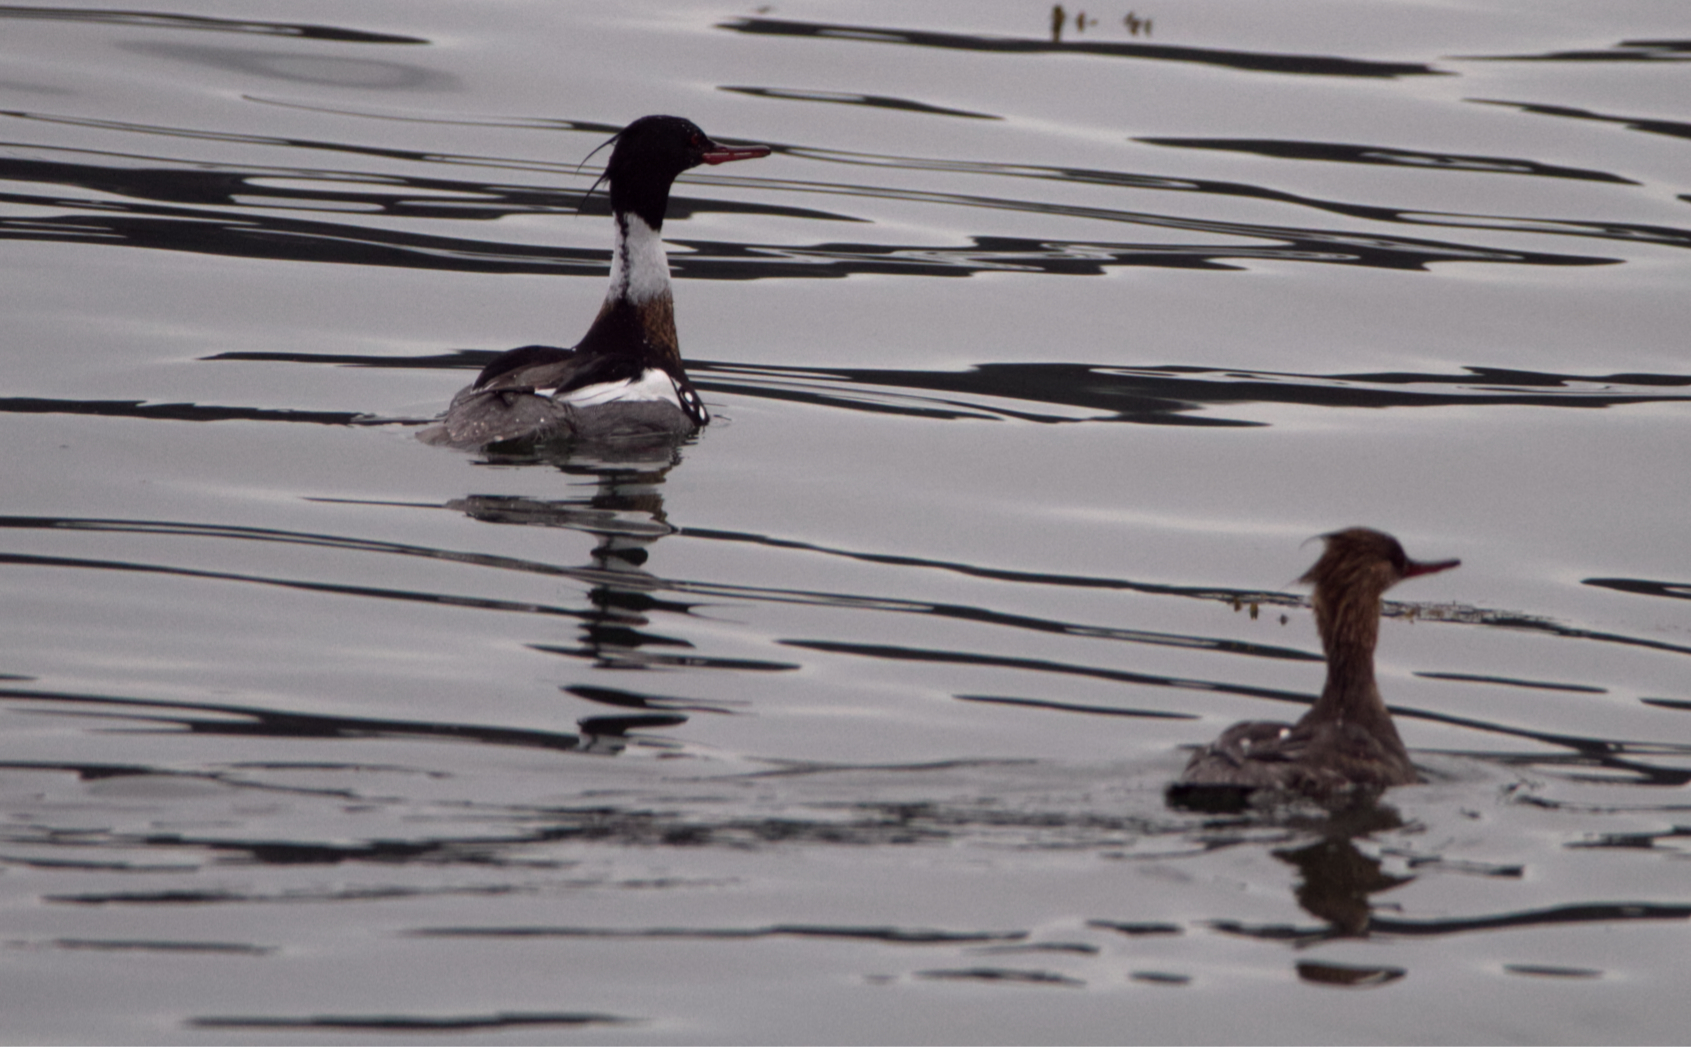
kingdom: Animalia
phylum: Chordata
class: Aves
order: Anseriformes
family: Anatidae
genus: Mergus
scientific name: Mergus serrator
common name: Red-breasted merganser
